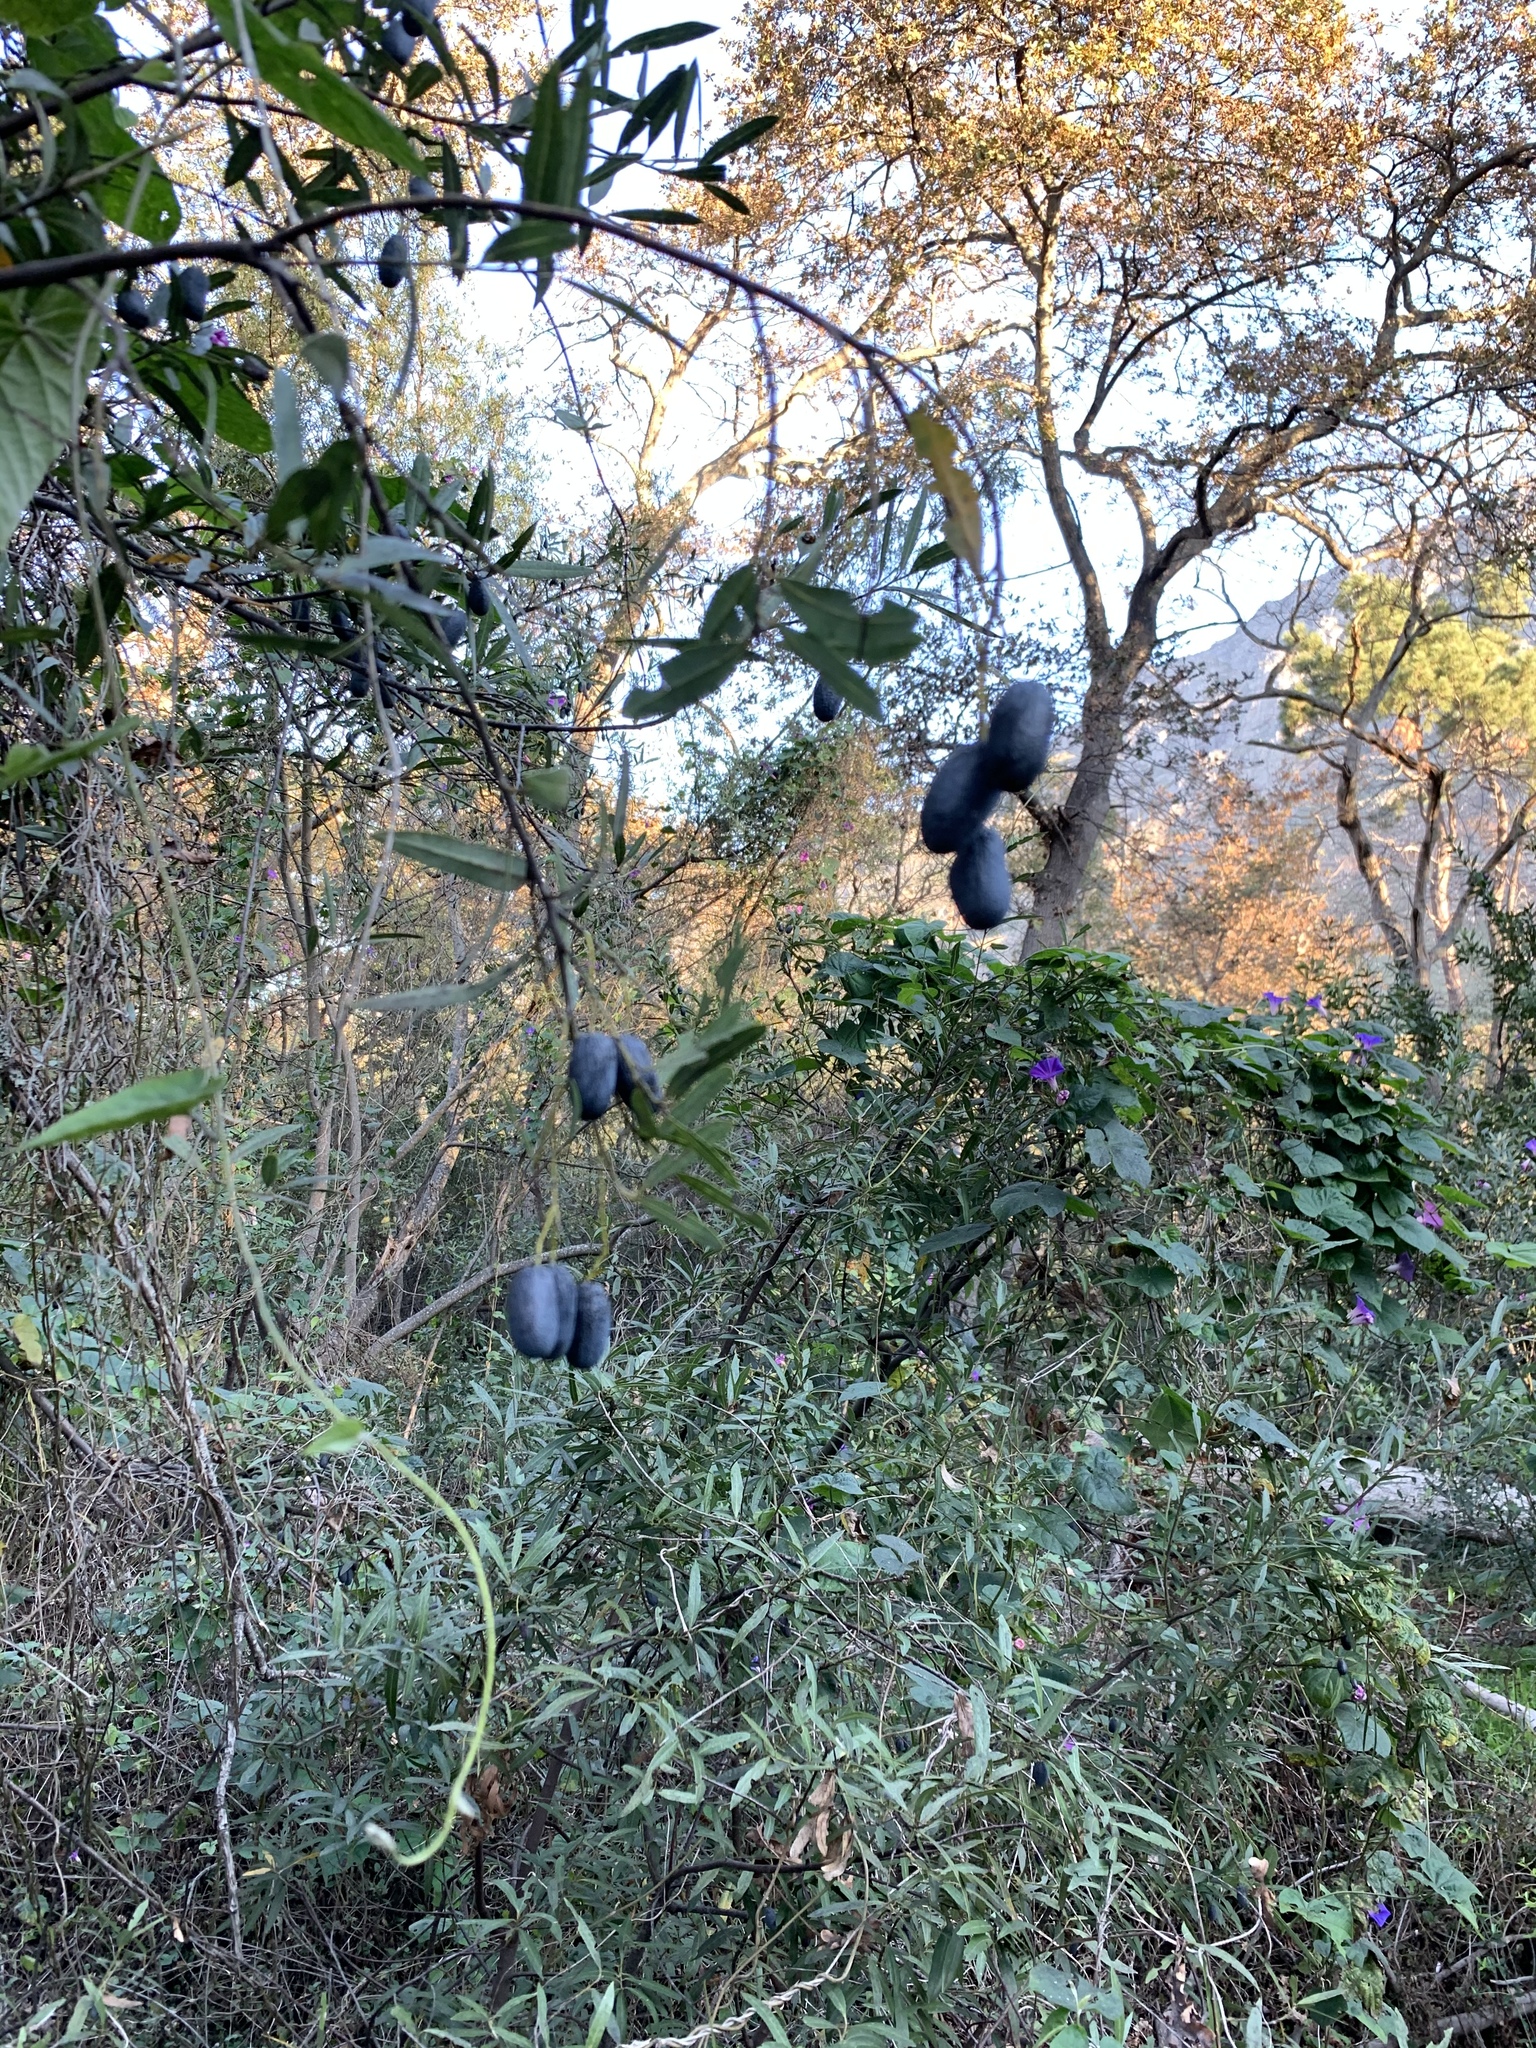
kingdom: Plantae
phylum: Tracheophyta
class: Magnoliopsida
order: Laurales
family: Lauraceae
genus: Cryptocarya
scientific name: Cryptocarya angustifolia
